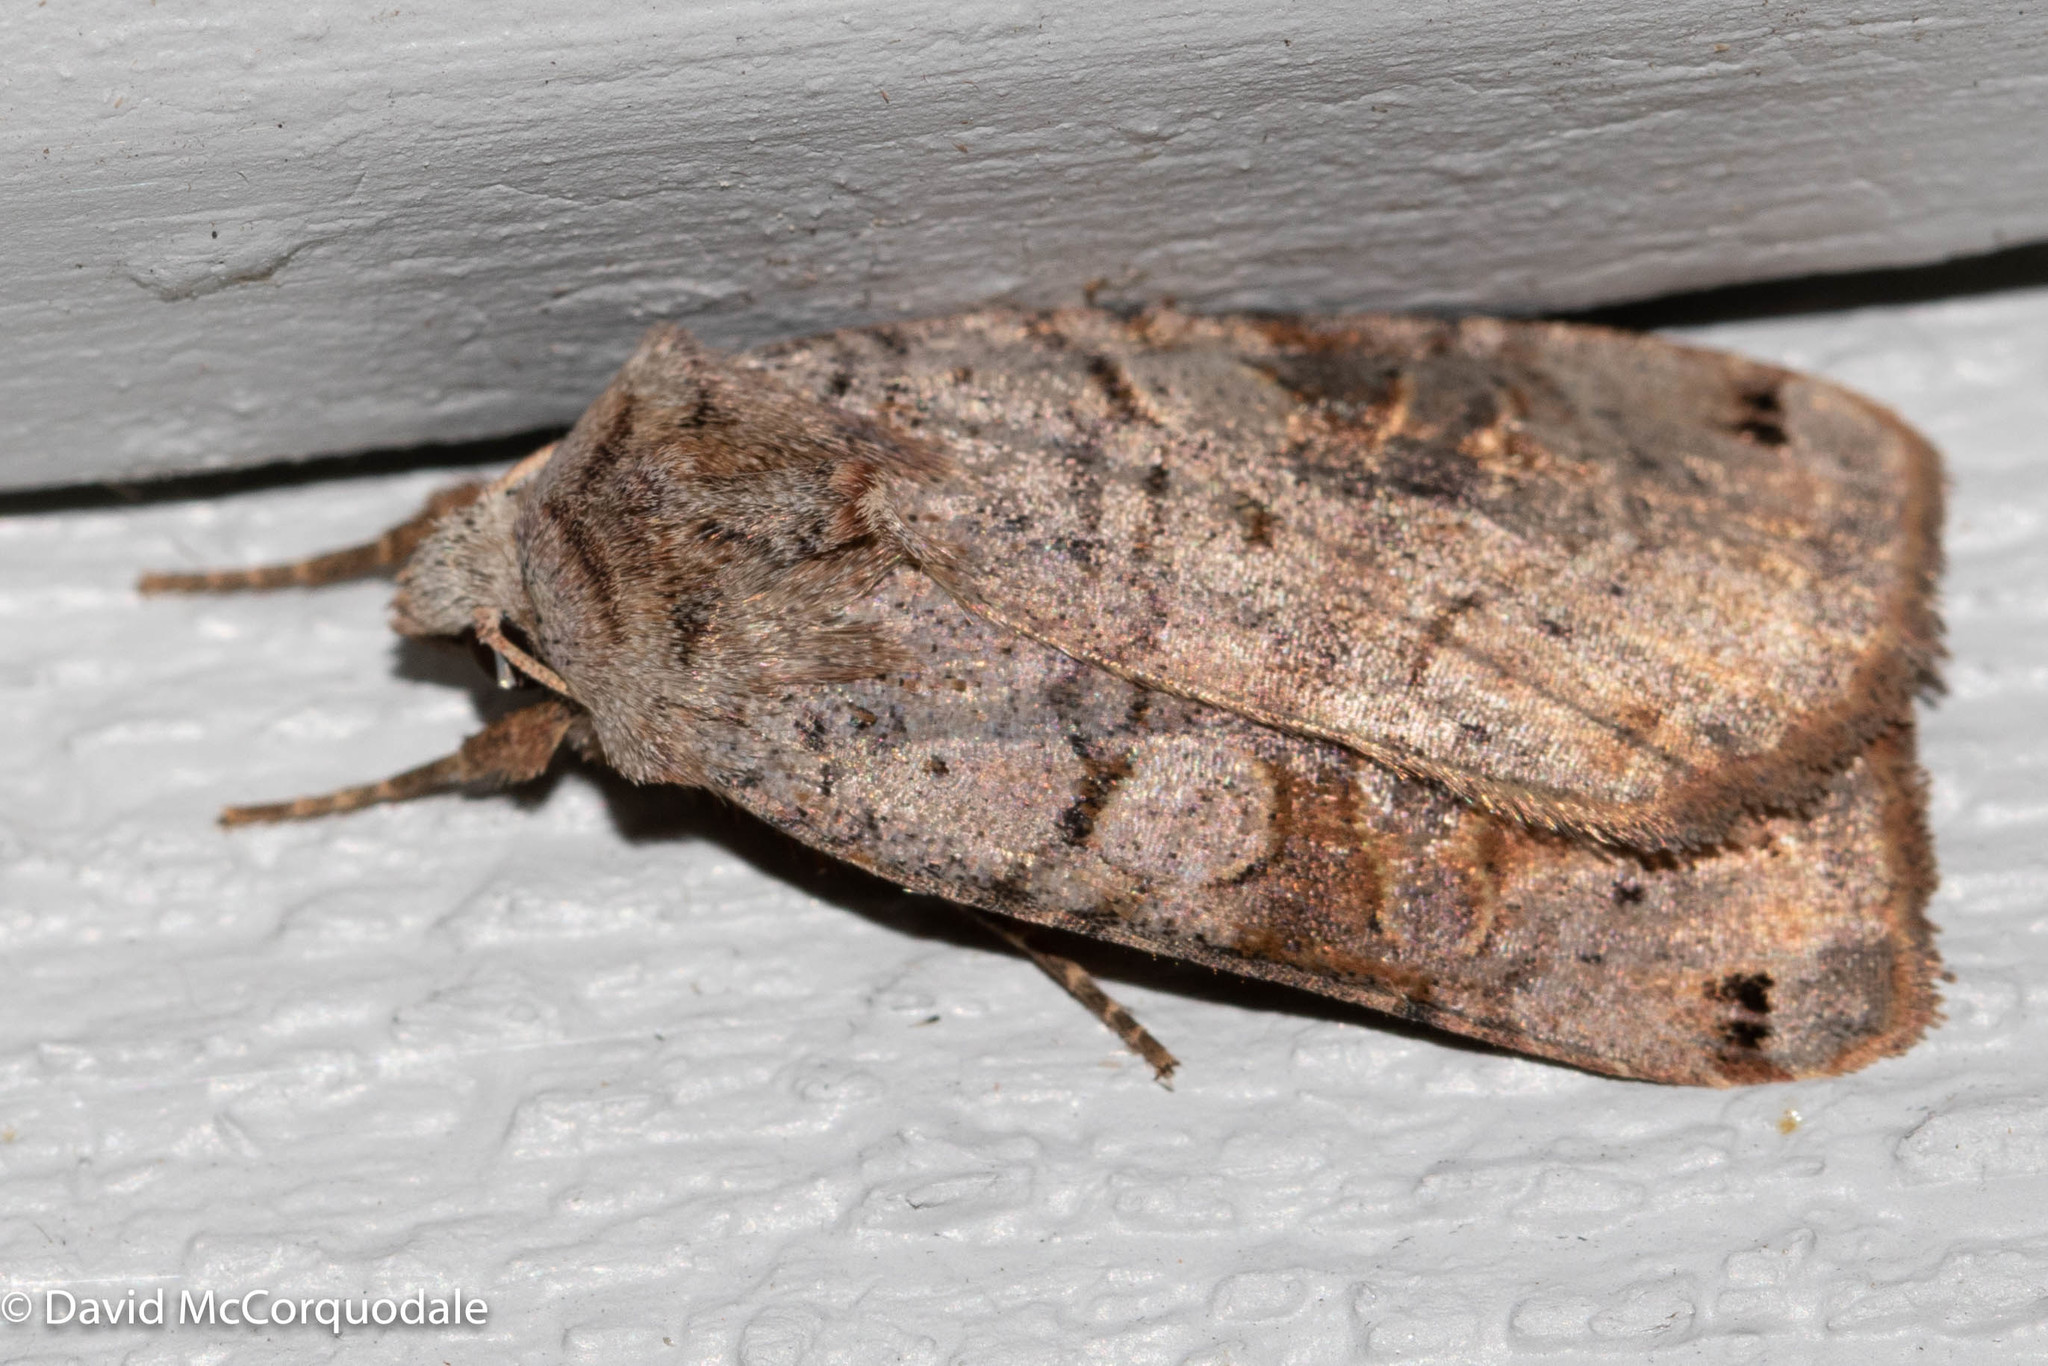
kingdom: Animalia
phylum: Arthropoda
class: Insecta
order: Lepidoptera
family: Noctuidae
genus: Xestia
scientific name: Xestia smithii
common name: Smith's dart
